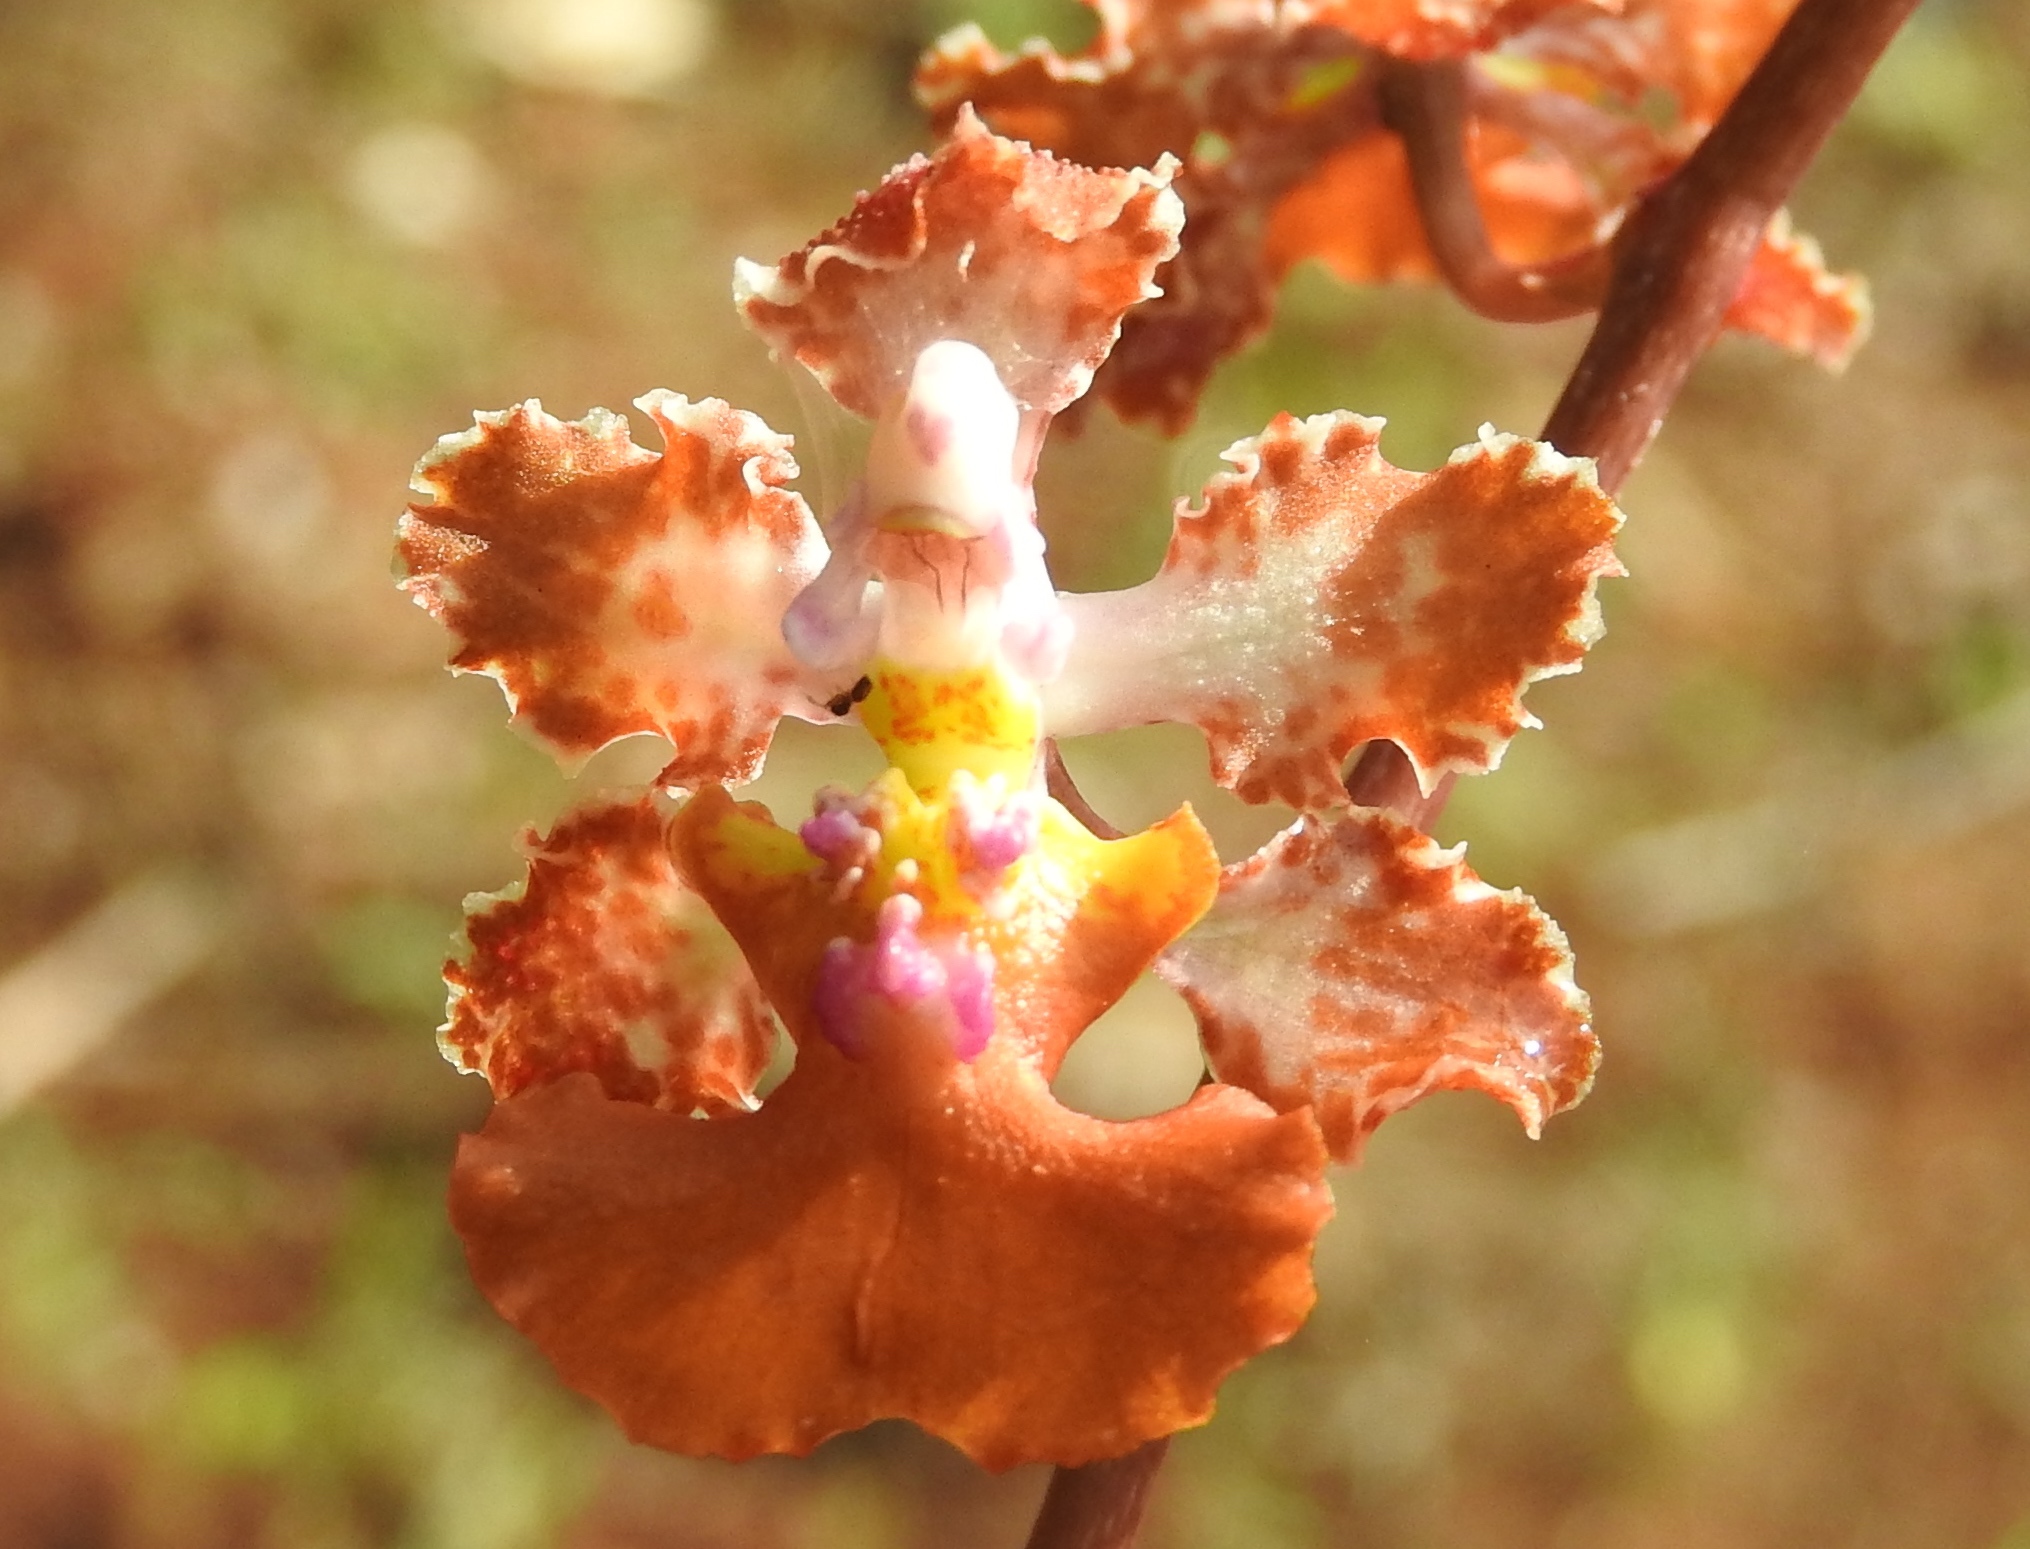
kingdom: Plantae
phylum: Tracheophyta
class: Liliopsida
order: Asparagales
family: Orchidaceae
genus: Trichocentrum
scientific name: Trichocentrum
